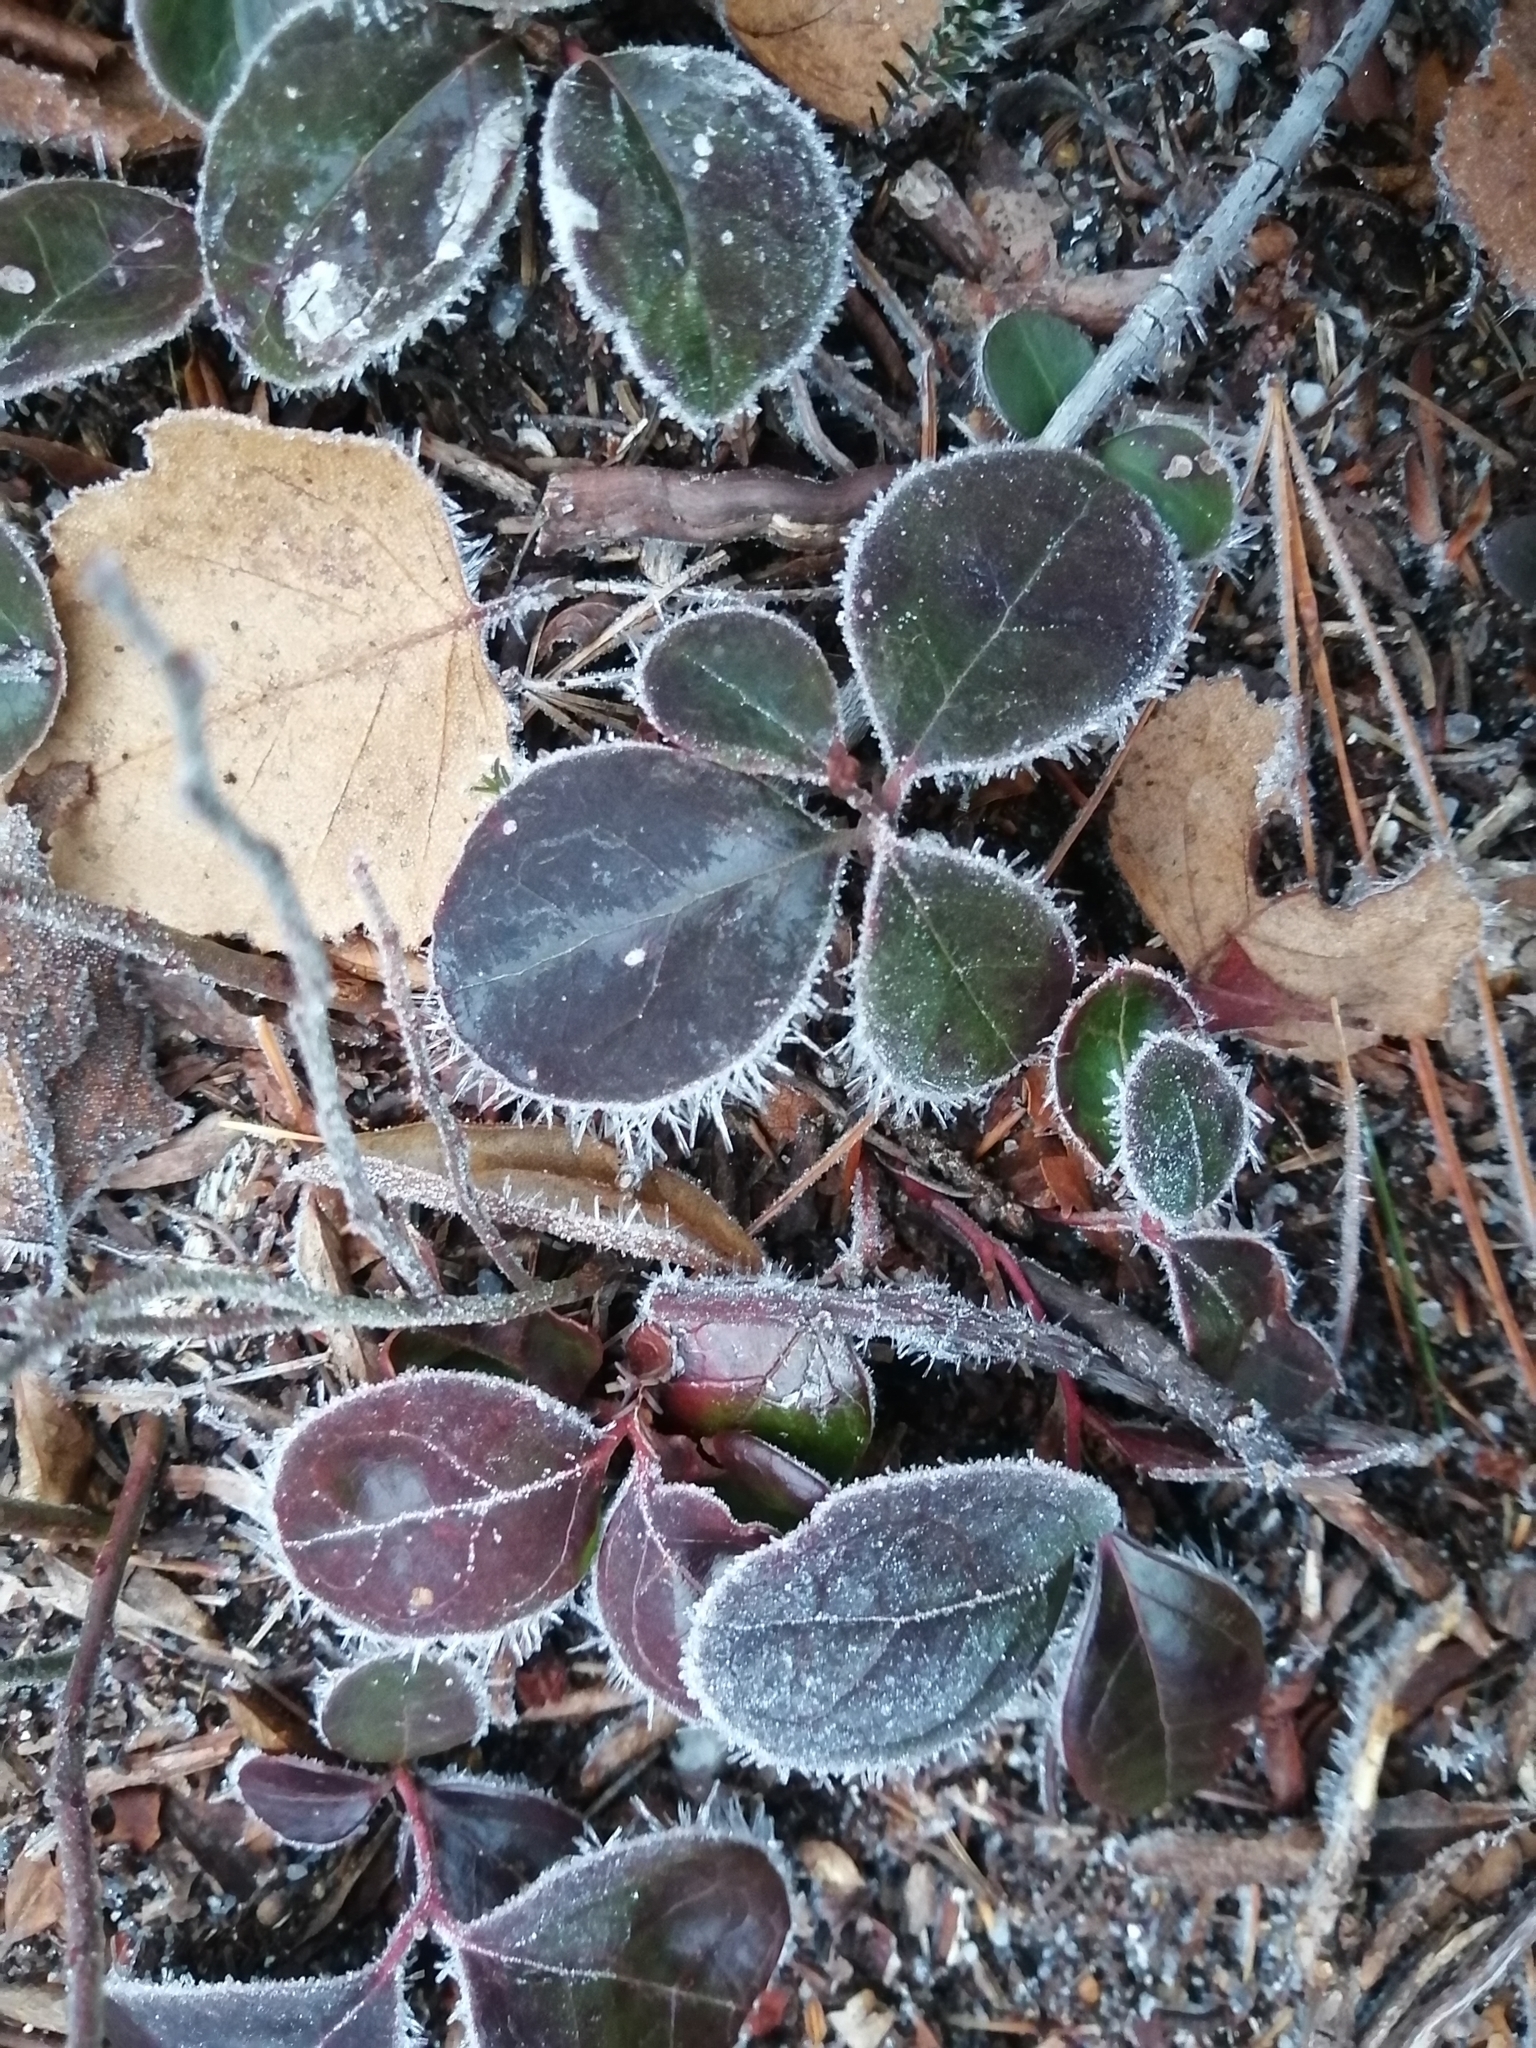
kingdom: Plantae
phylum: Tracheophyta
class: Magnoliopsida
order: Ericales
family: Ericaceae
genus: Gaultheria
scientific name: Gaultheria procumbens
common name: Checkerberry
